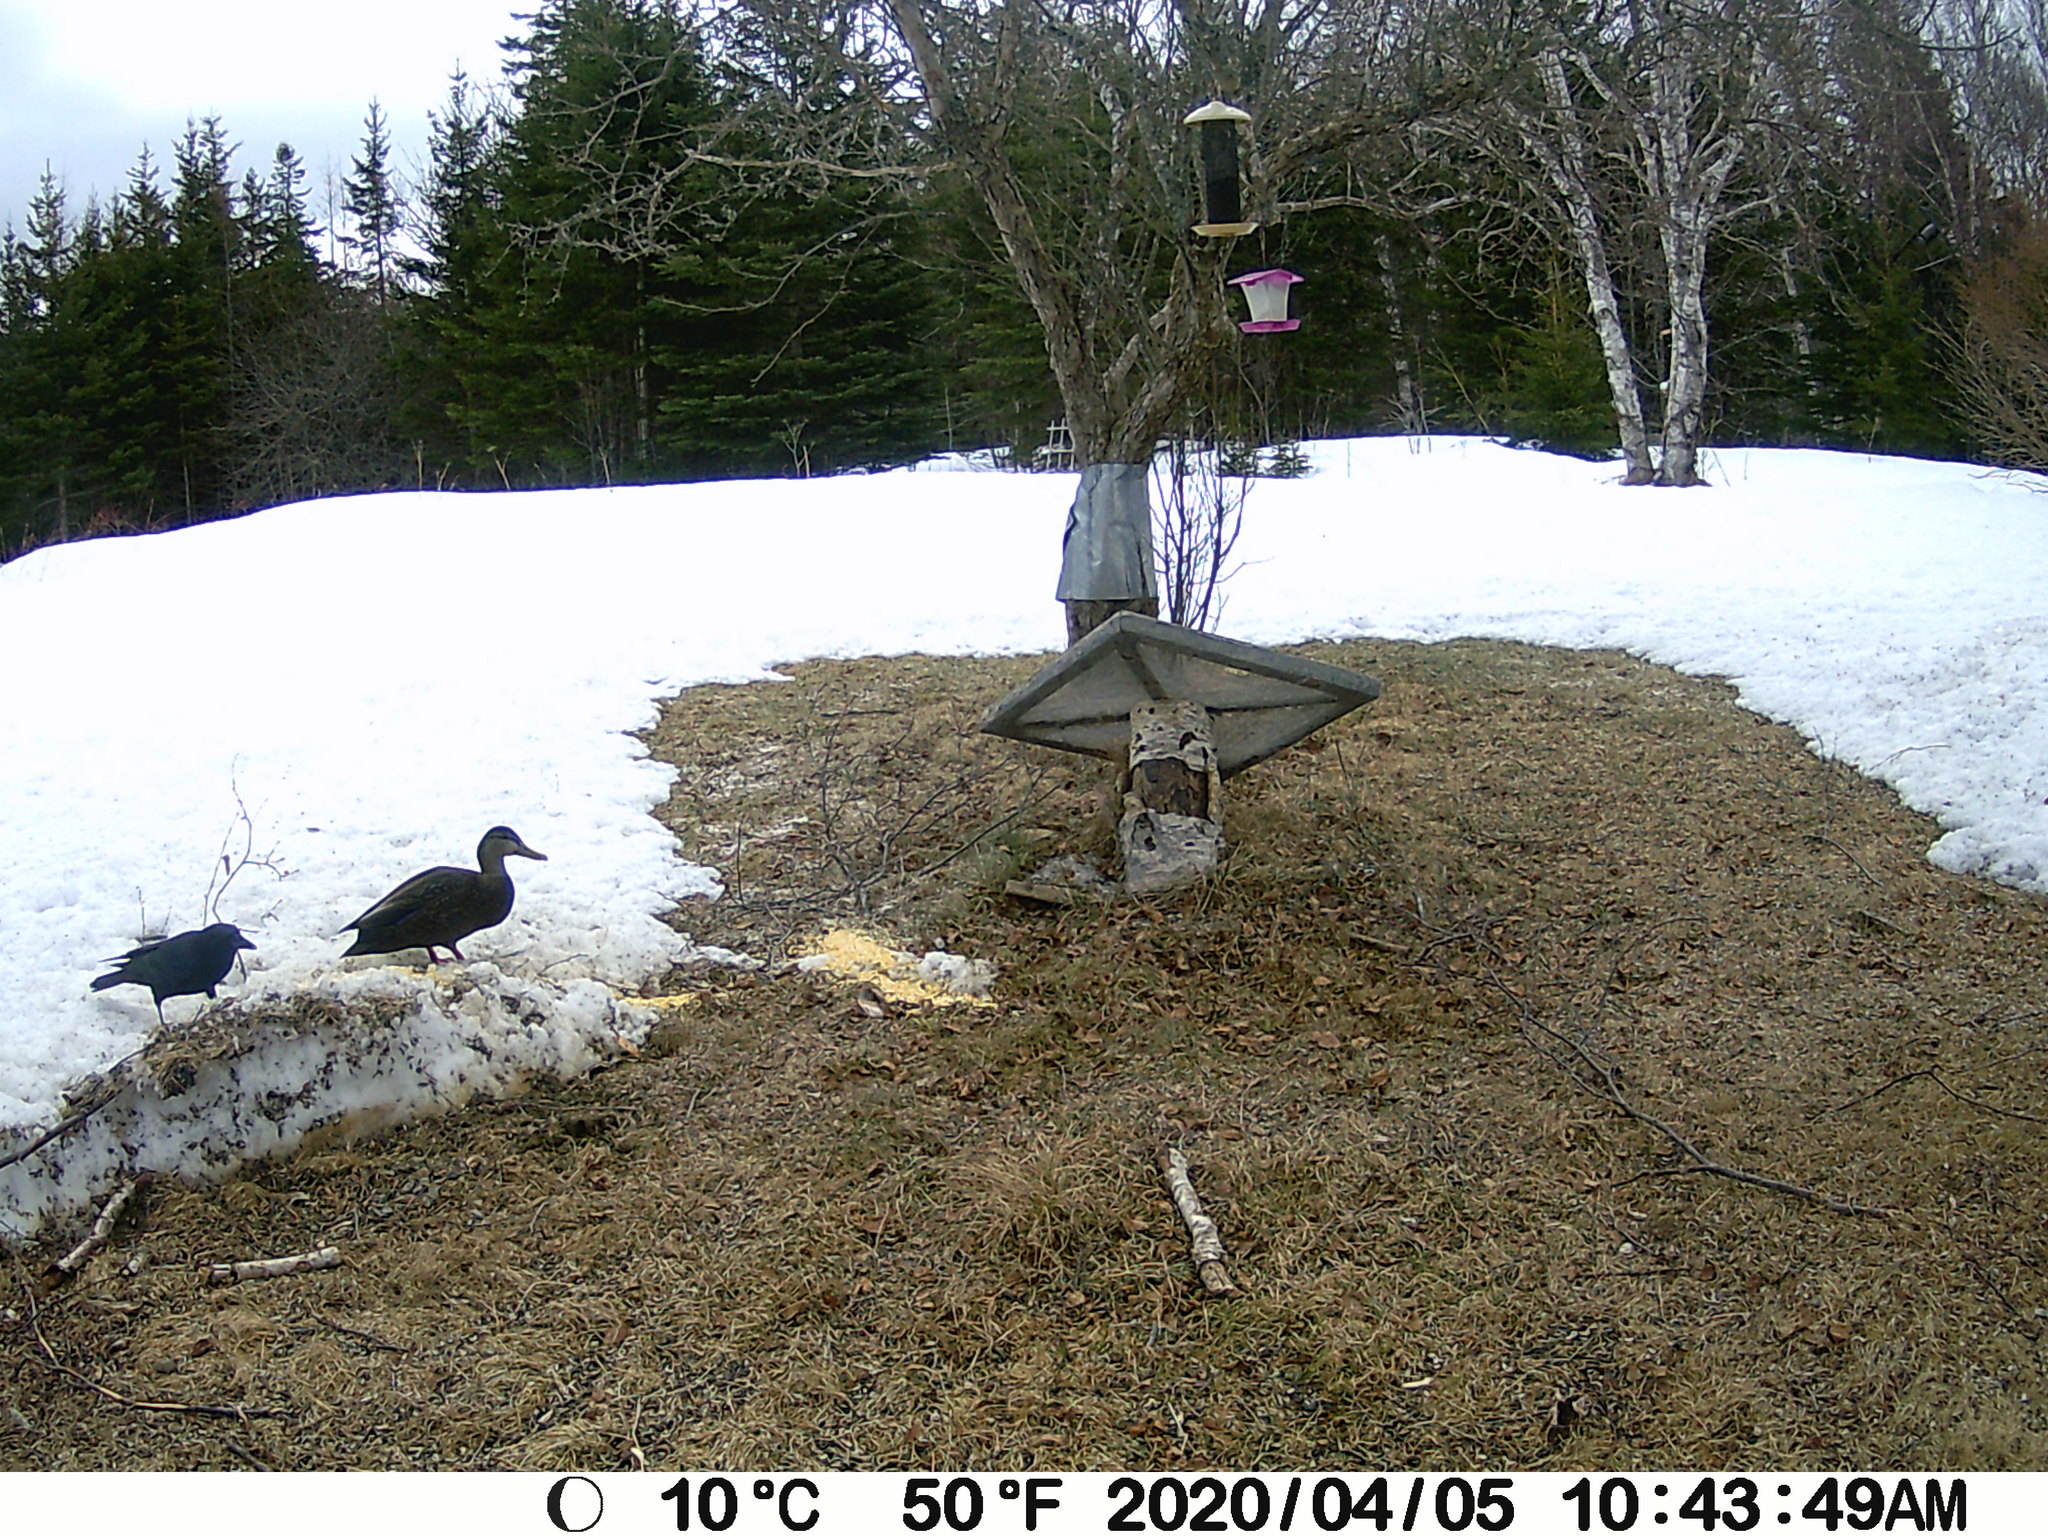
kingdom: Animalia
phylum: Chordata
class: Aves
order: Anseriformes
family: Anatidae
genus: Anas
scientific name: Anas rubripes
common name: American black duck
